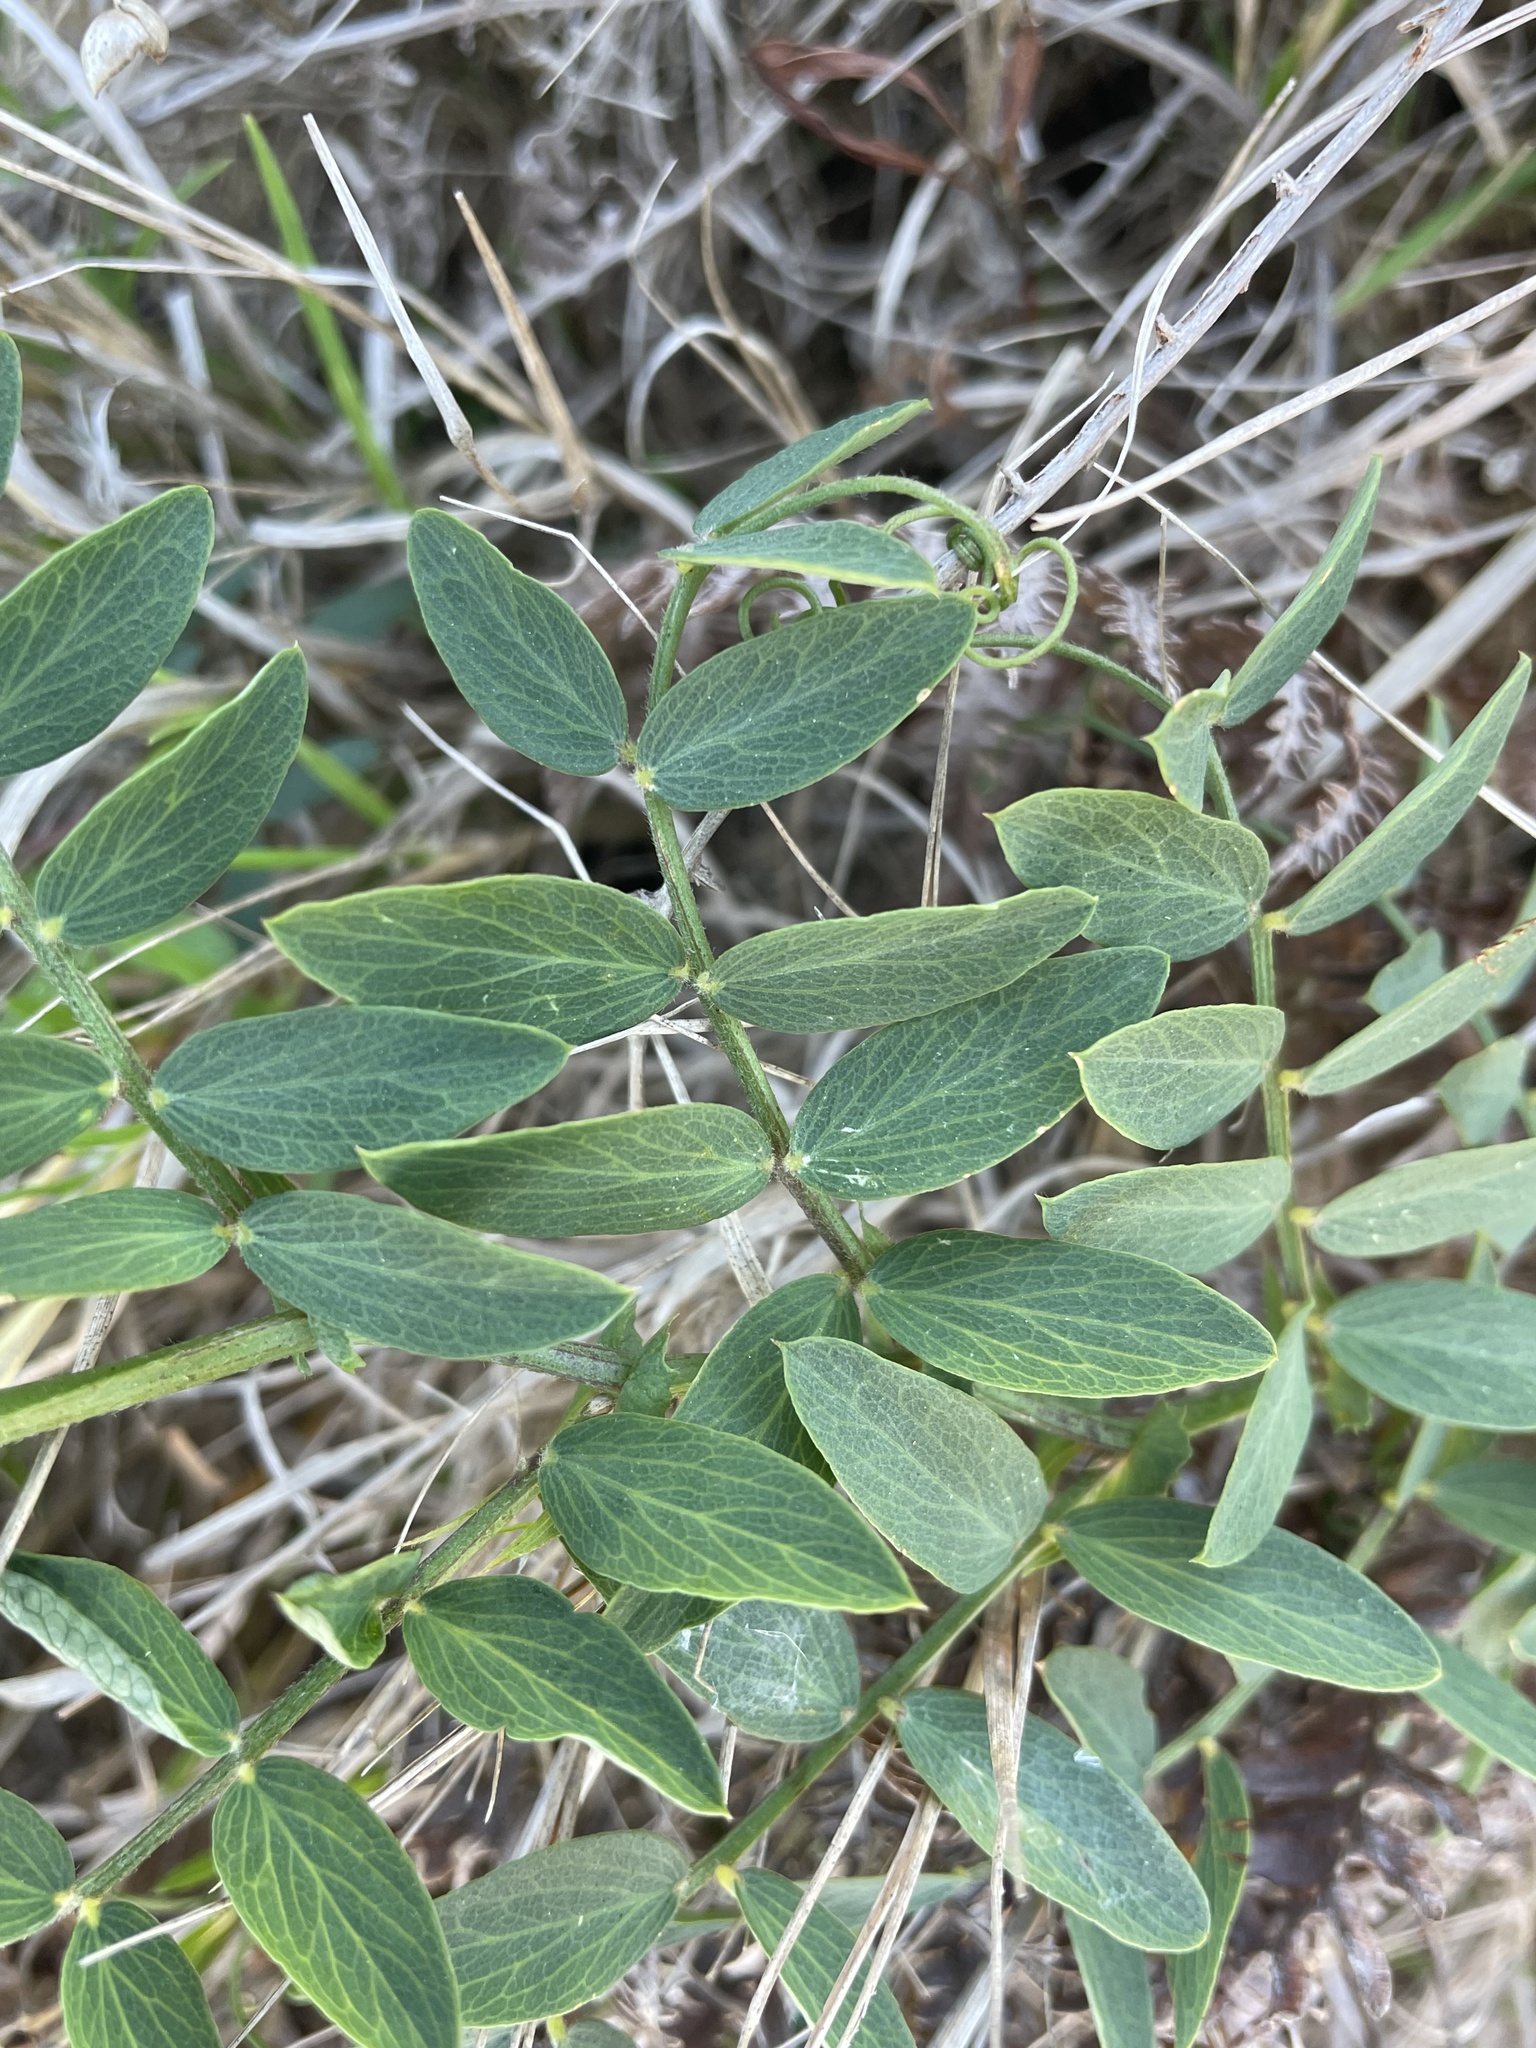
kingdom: Plantae
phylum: Tracheophyta
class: Magnoliopsida
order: Fabales
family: Fabaceae
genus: Lathyrus
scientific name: Lathyrus vestitus
